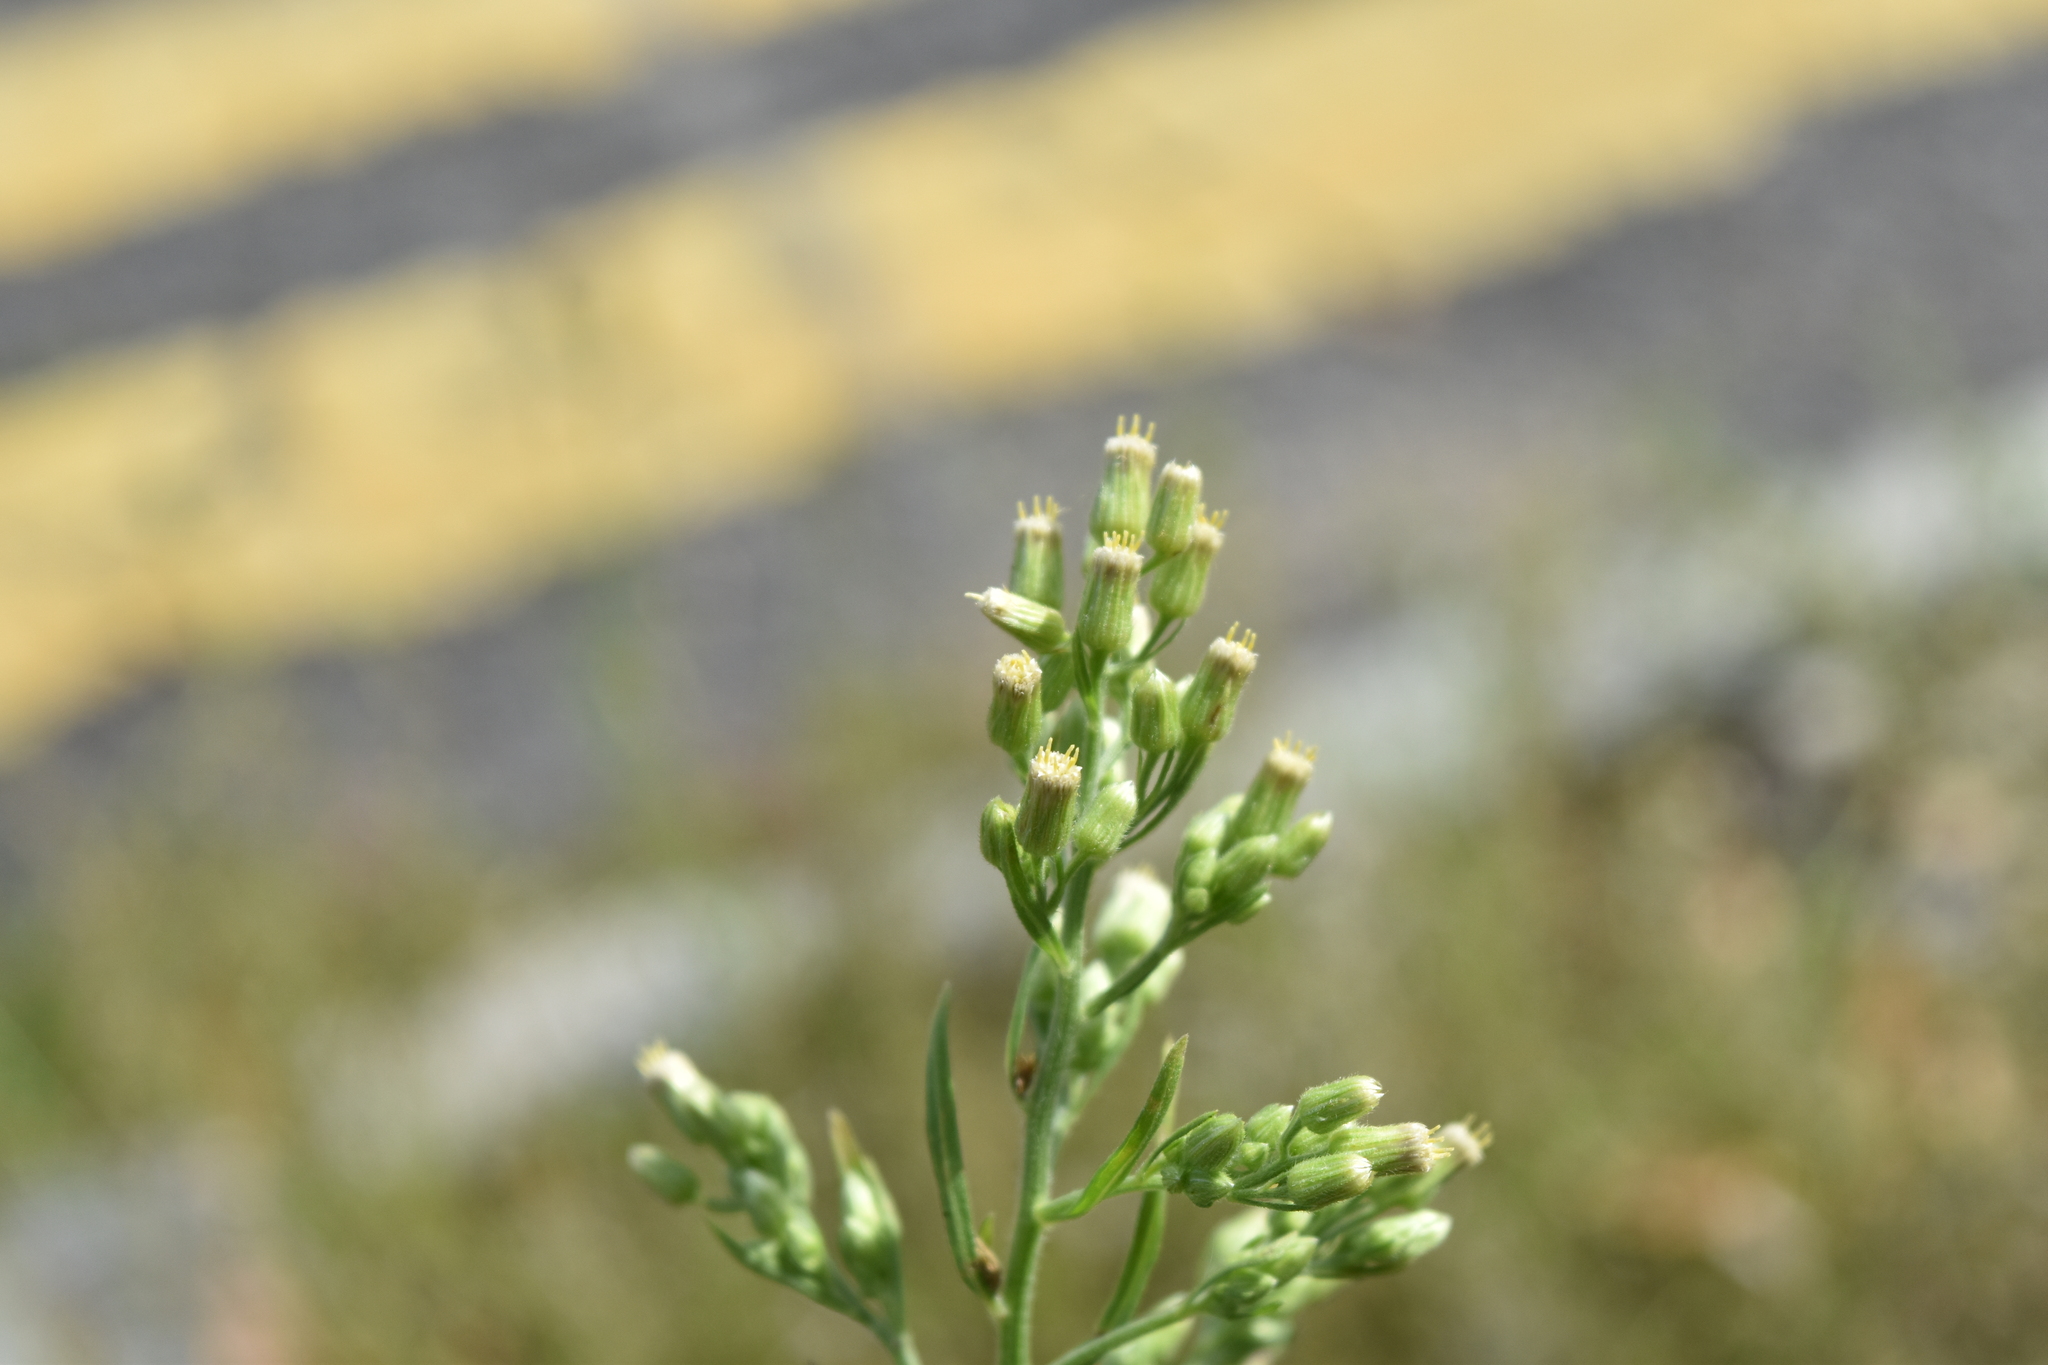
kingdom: Plantae
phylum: Tracheophyta
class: Magnoliopsida
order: Asterales
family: Asteraceae
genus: Erigeron
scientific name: Erigeron sumatrensis
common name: Daisy
